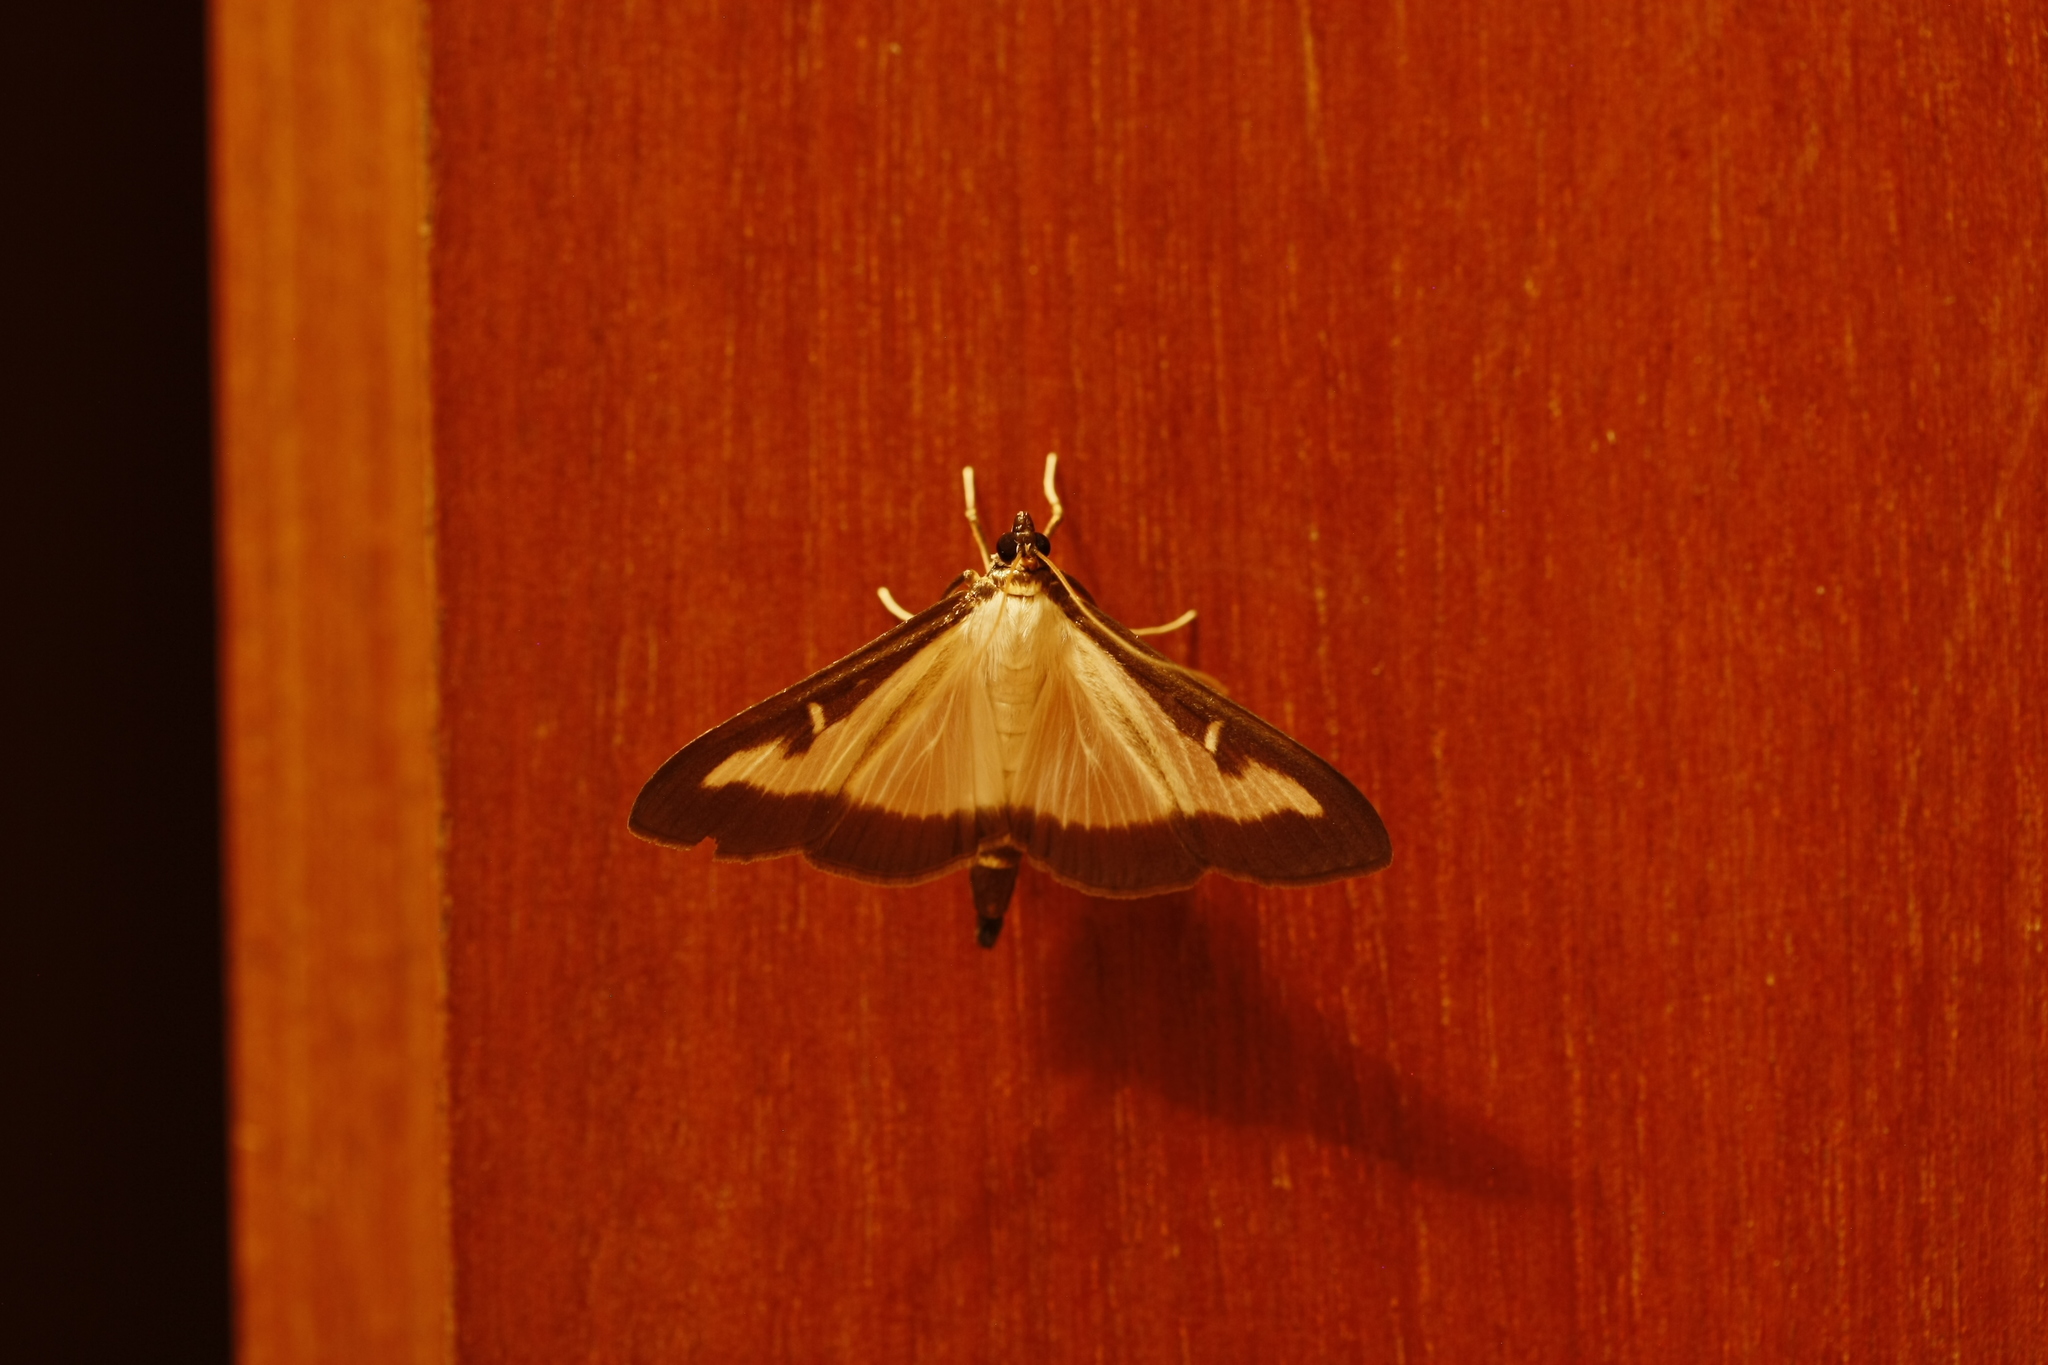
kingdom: Animalia
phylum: Arthropoda
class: Insecta
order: Lepidoptera
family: Crambidae
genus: Cydalima
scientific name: Cydalima perspectalis
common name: Box tree moth
